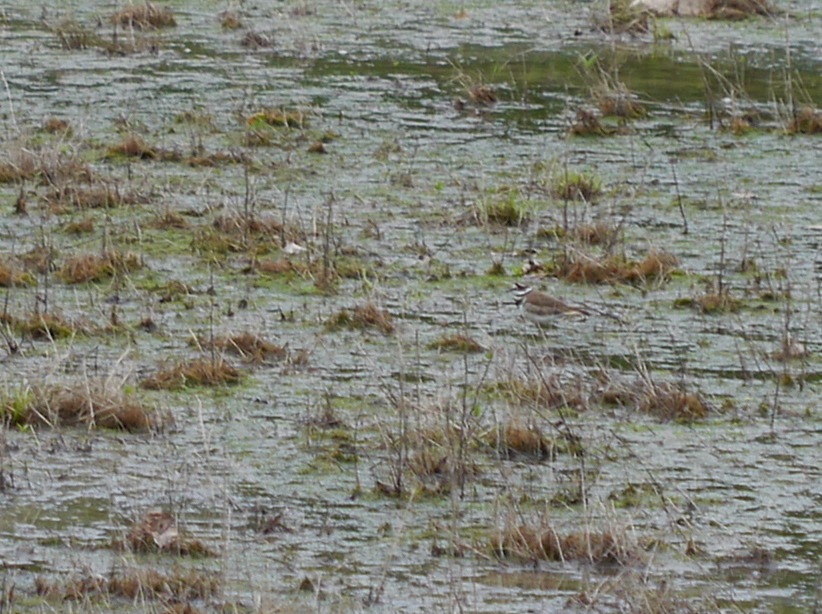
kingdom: Animalia
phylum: Chordata
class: Aves
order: Charadriiformes
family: Charadriidae
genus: Charadrius
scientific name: Charadrius vociferus
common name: Killdeer
